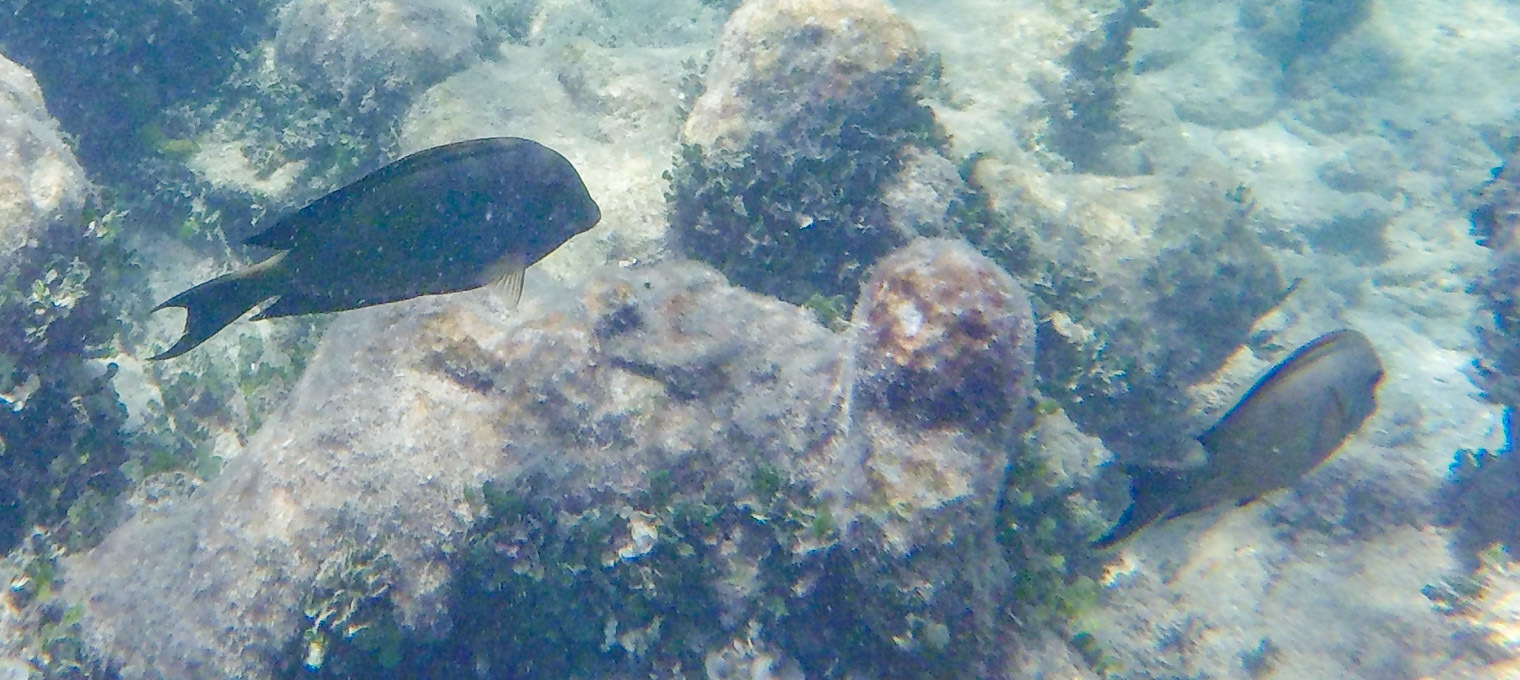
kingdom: Animalia
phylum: Chordata
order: Perciformes
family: Acanthuridae
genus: Ctenochaetus
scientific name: Ctenochaetus striatus
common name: Bristle-toothed surgeonfish
